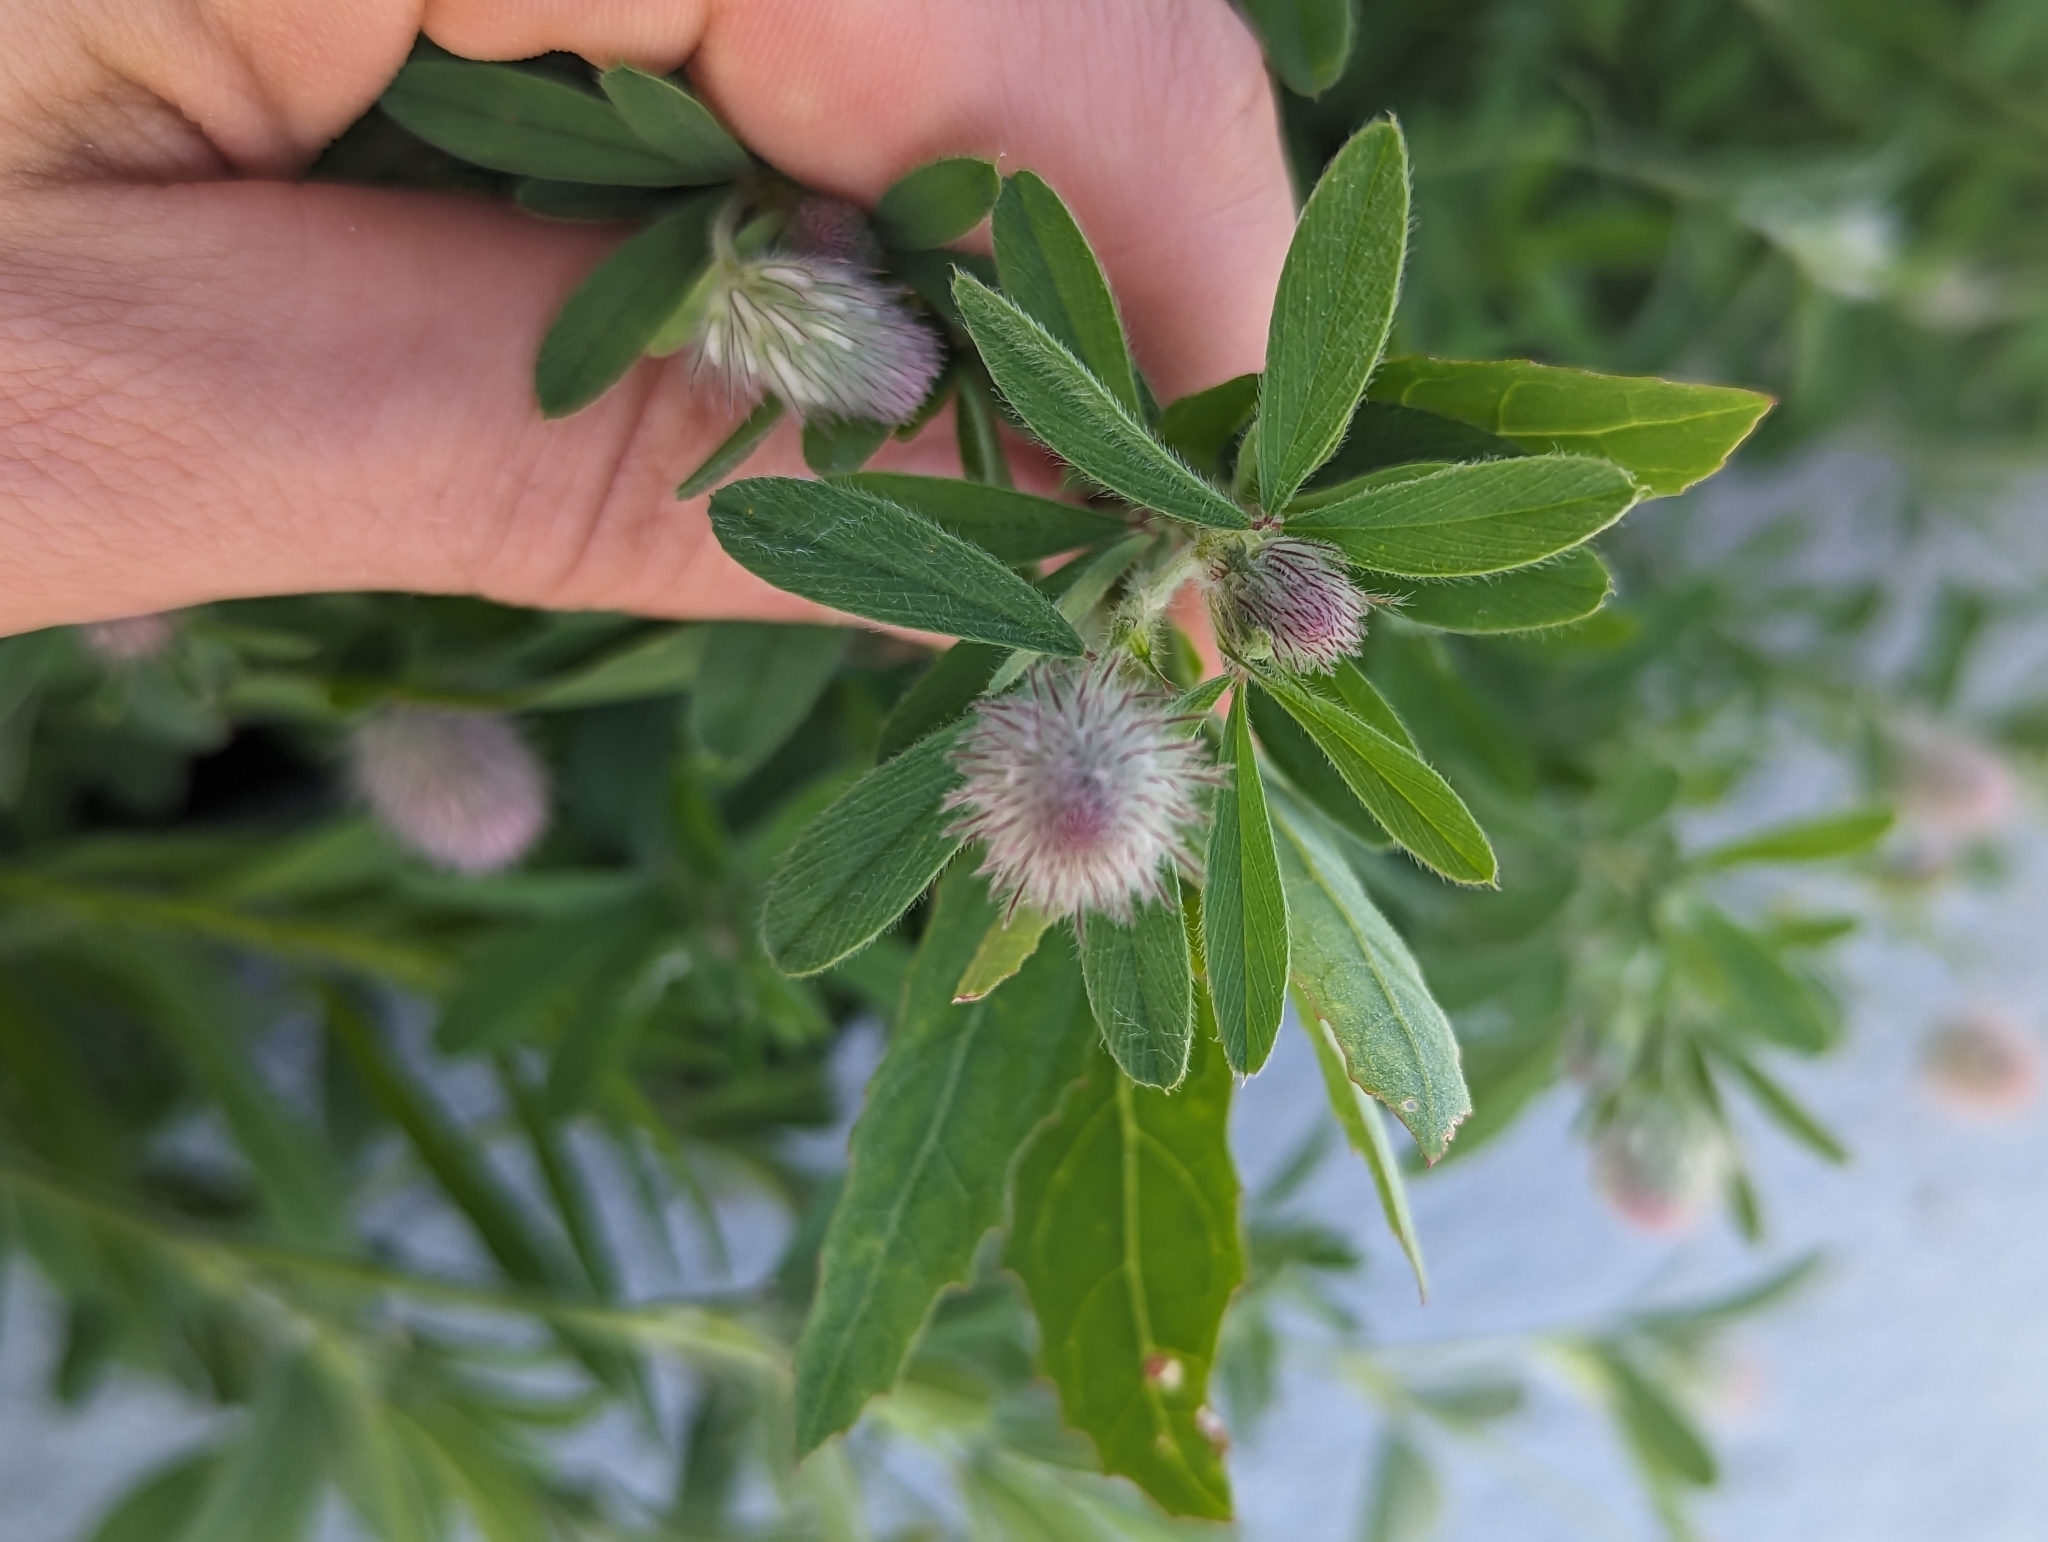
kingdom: Plantae
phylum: Tracheophyta
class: Magnoliopsida
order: Fabales
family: Fabaceae
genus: Trifolium
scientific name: Trifolium arvense
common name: Hare's-foot clover
